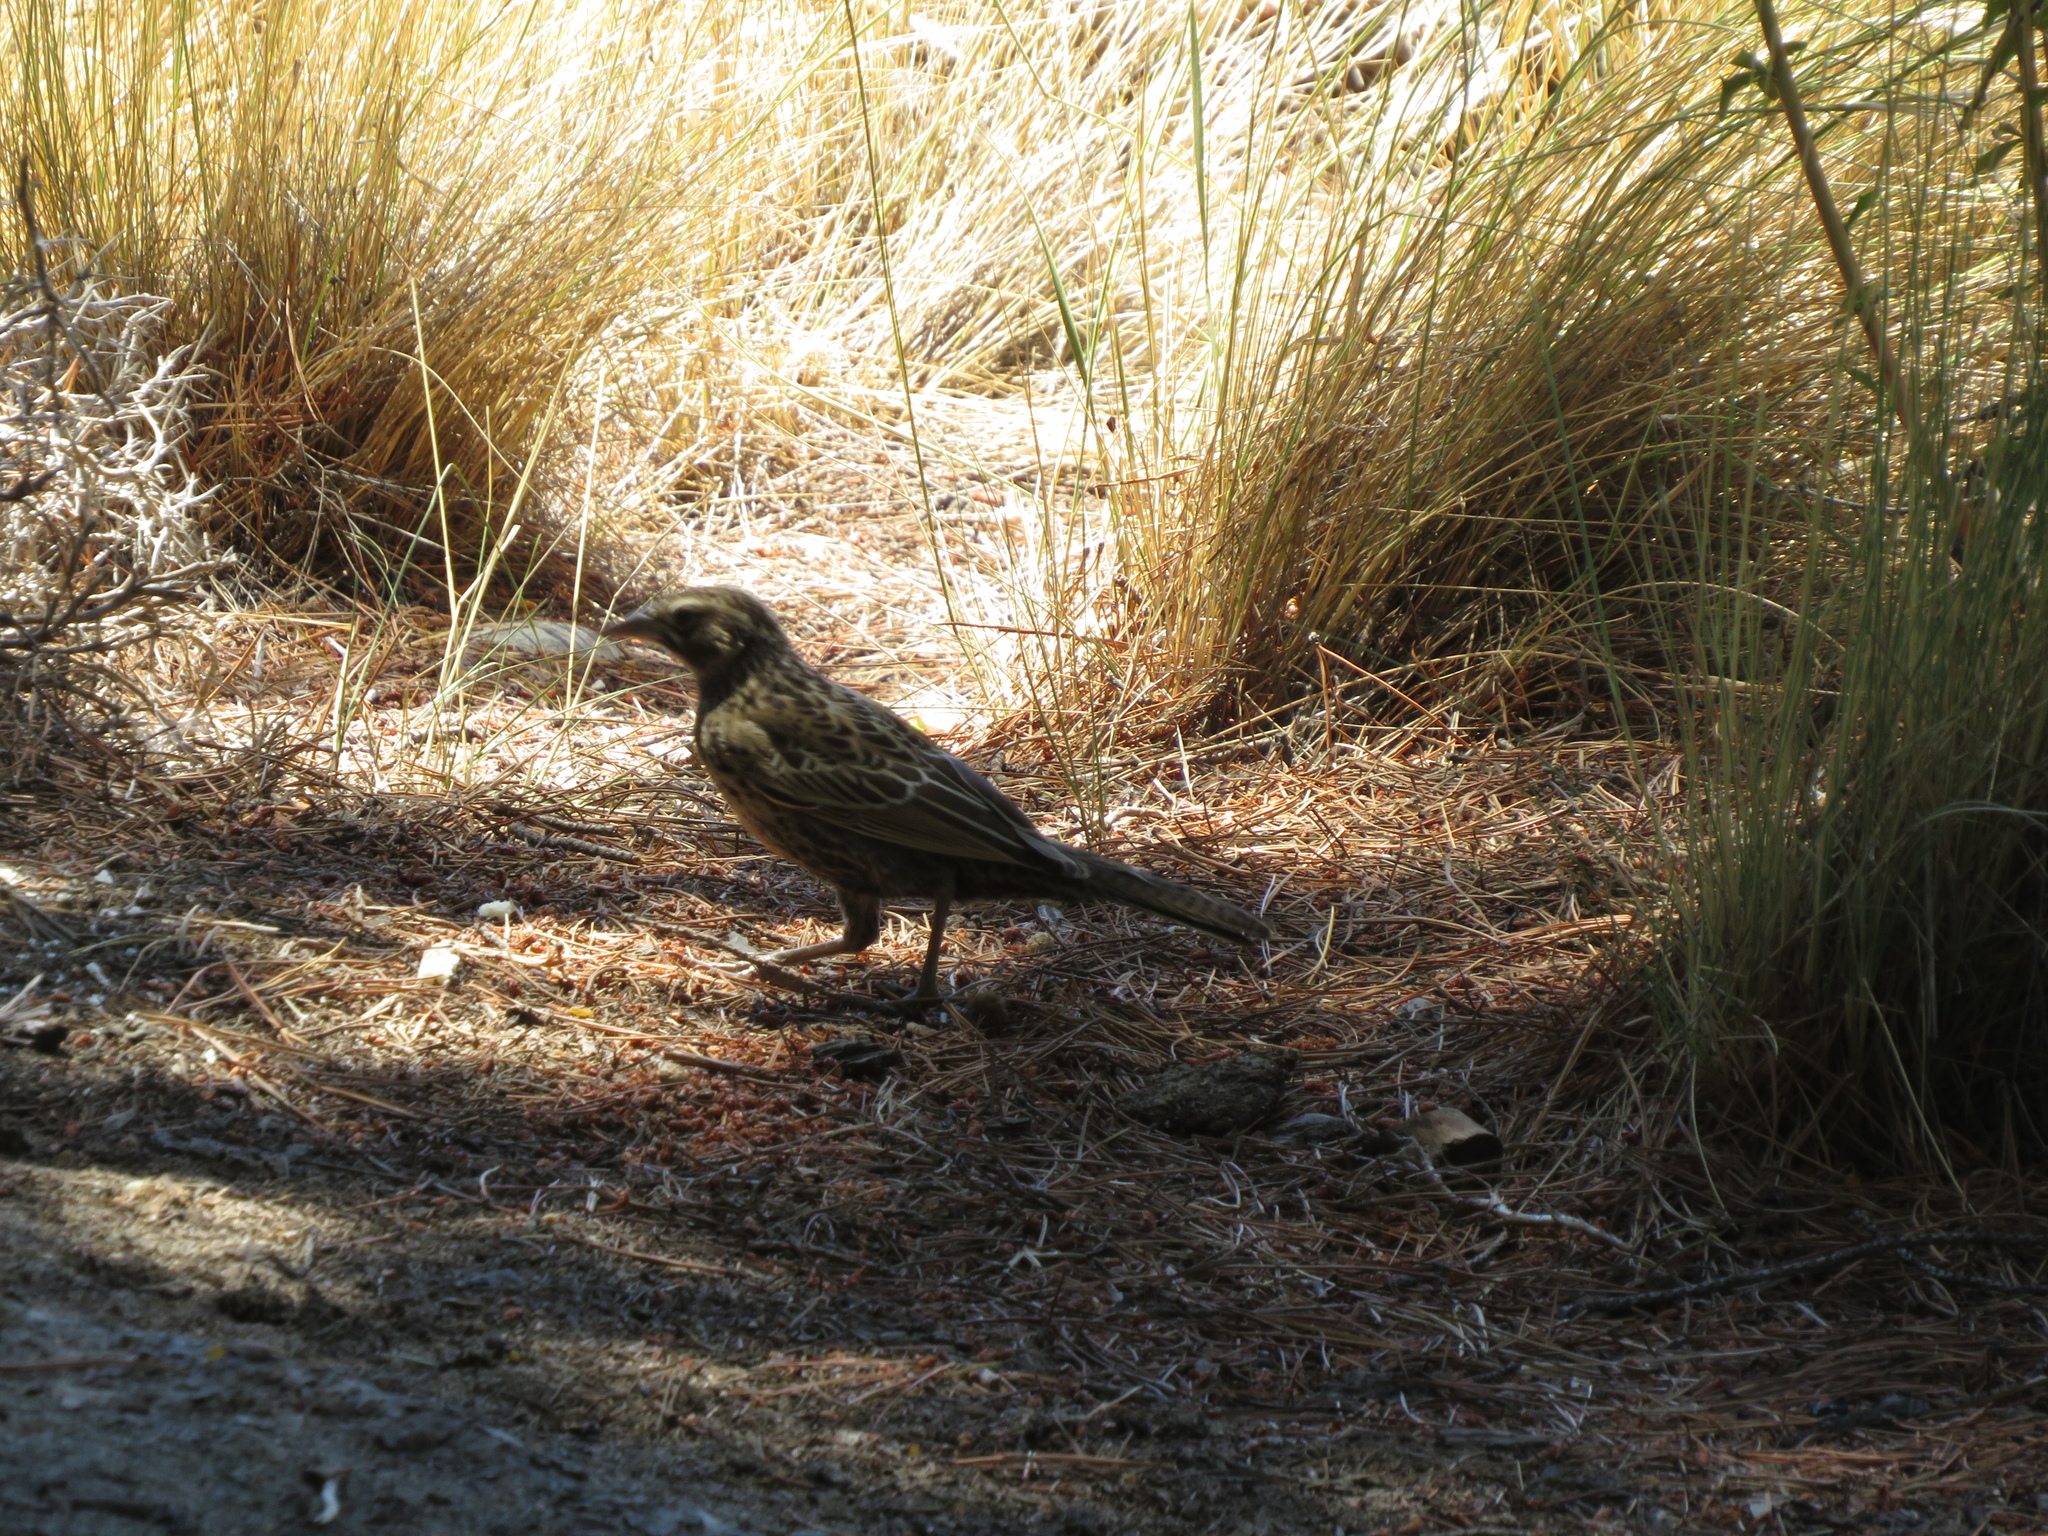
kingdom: Animalia
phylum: Chordata
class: Aves
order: Passeriformes
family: Icteridae
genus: Sturnella
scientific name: Sturnella loyca
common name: Long-tailed meadowlark
